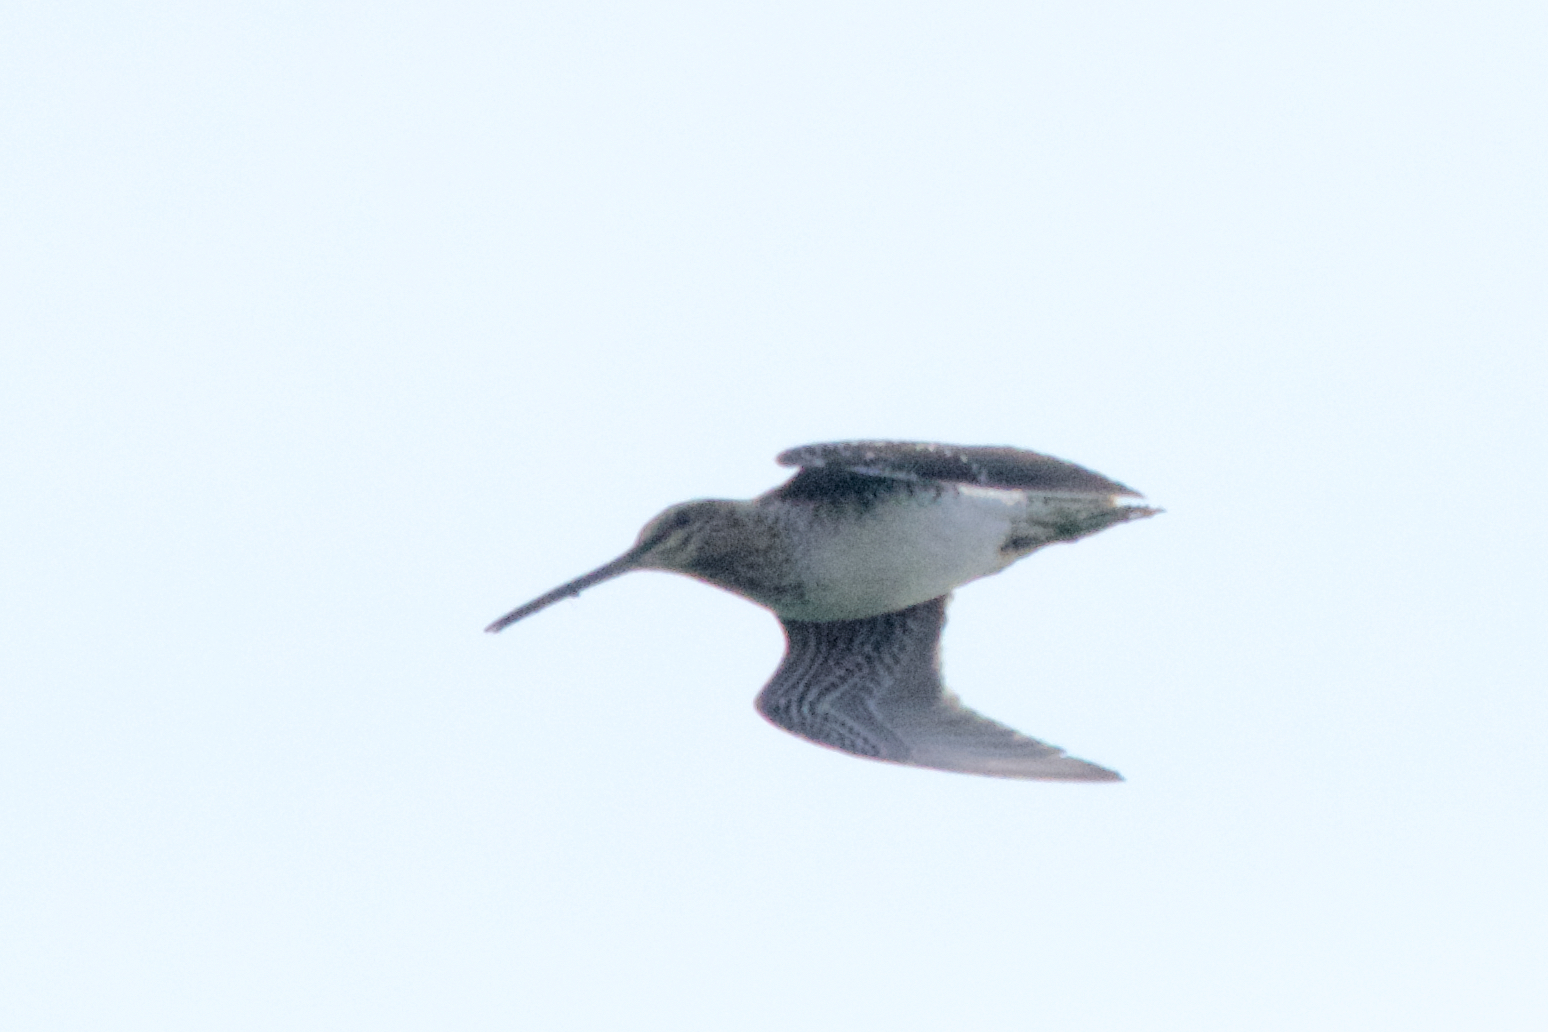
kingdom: Animalia
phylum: Chordata
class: Aves
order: Charadriiformes
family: Scolopacidae
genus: Gallinago
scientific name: Gallinago delicata
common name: Wilson's snipe
